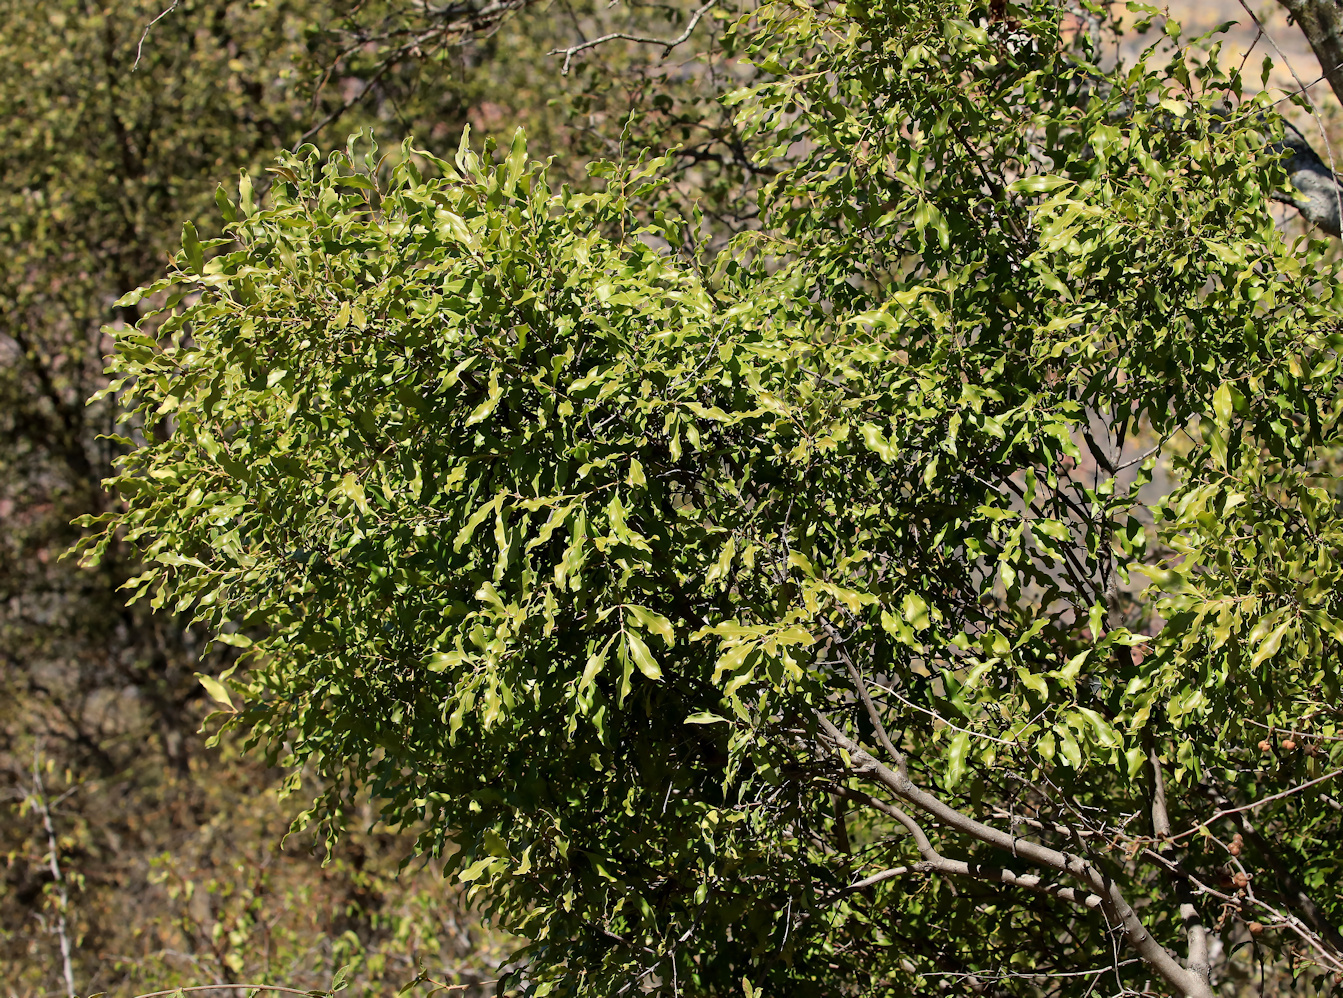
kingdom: Plantae
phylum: Tracheophyta
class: Magnoliopsida
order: Ericales
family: Ebenaceae
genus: Euclea
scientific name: Euclea divinorum
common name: Diamond-leaved euclea
